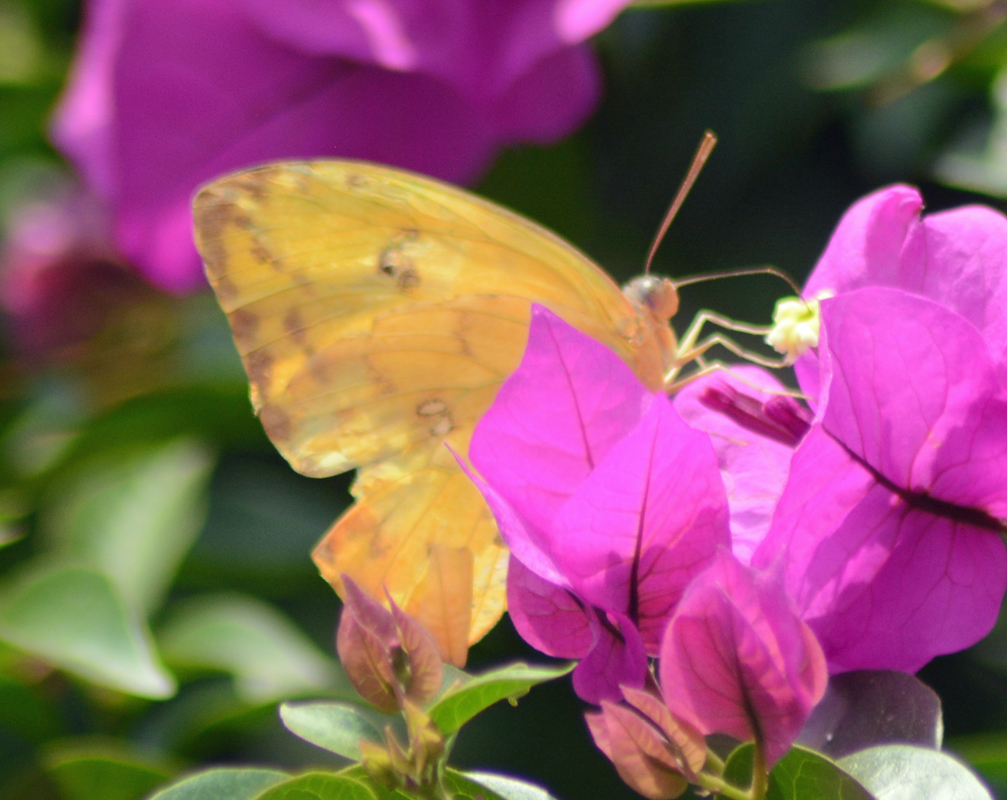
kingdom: Animalia
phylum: Arthropoda
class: Insecta
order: Lepidoptera
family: Pieridae
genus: Phoebis
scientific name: Phoebis philea
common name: Orange-barred giant sulphur
